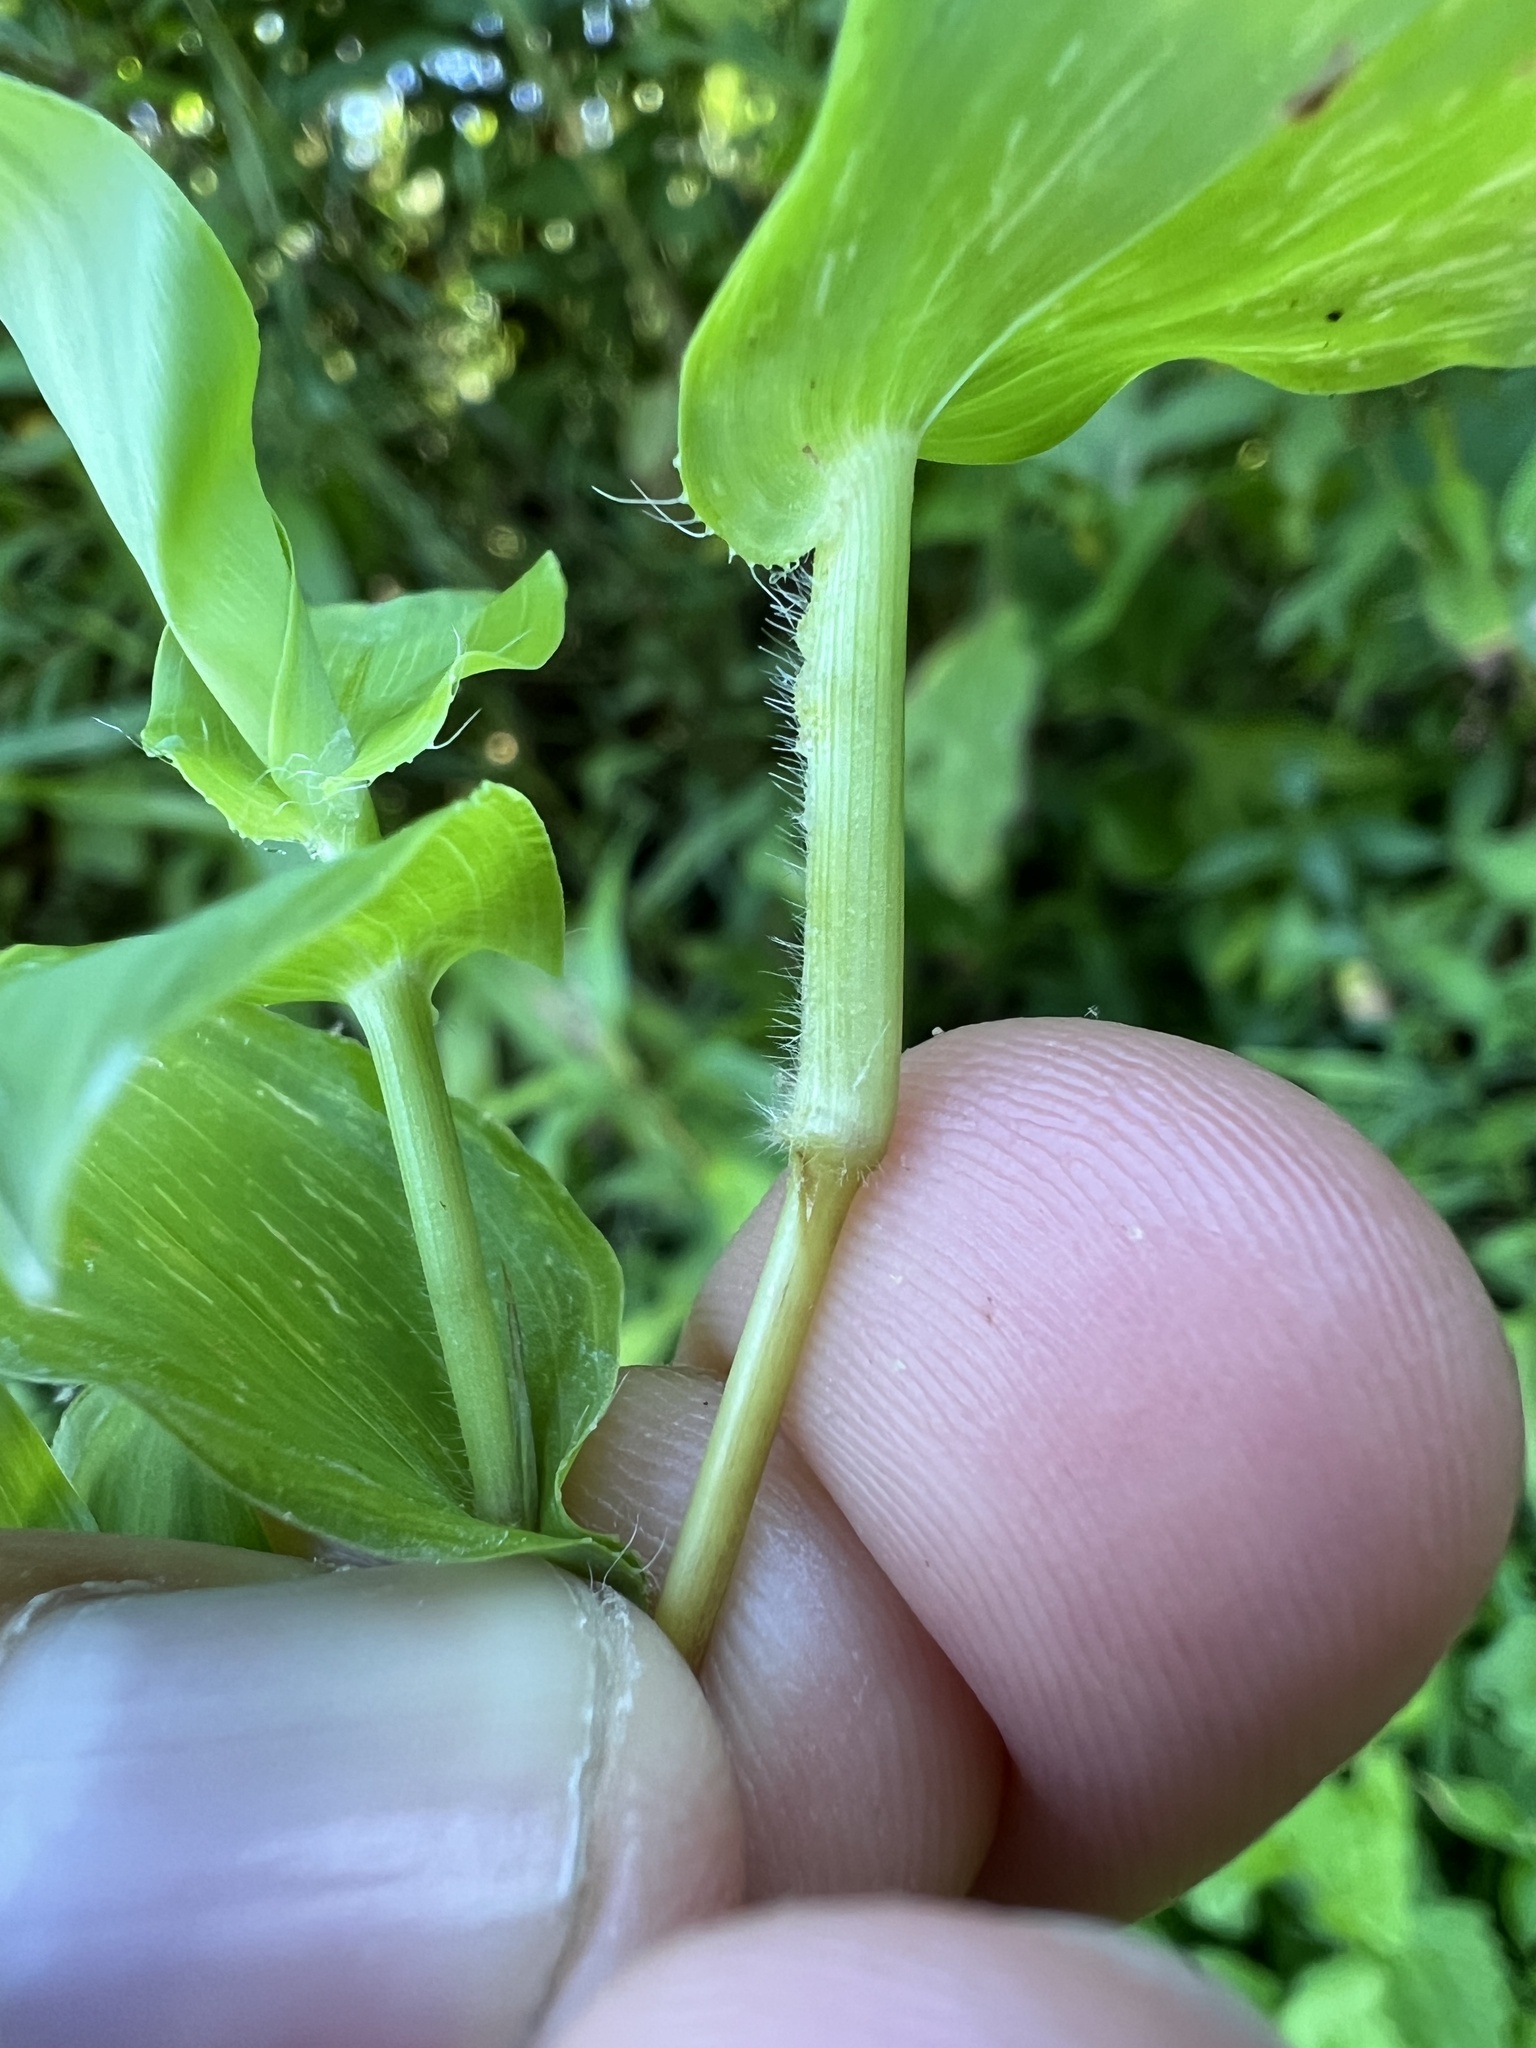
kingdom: Plantae
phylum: Tracheophyta
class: Liliopsida
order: Poales
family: Poaceae
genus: Arthraxon
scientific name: Arthraxon hispidus
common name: Small carpgrass
